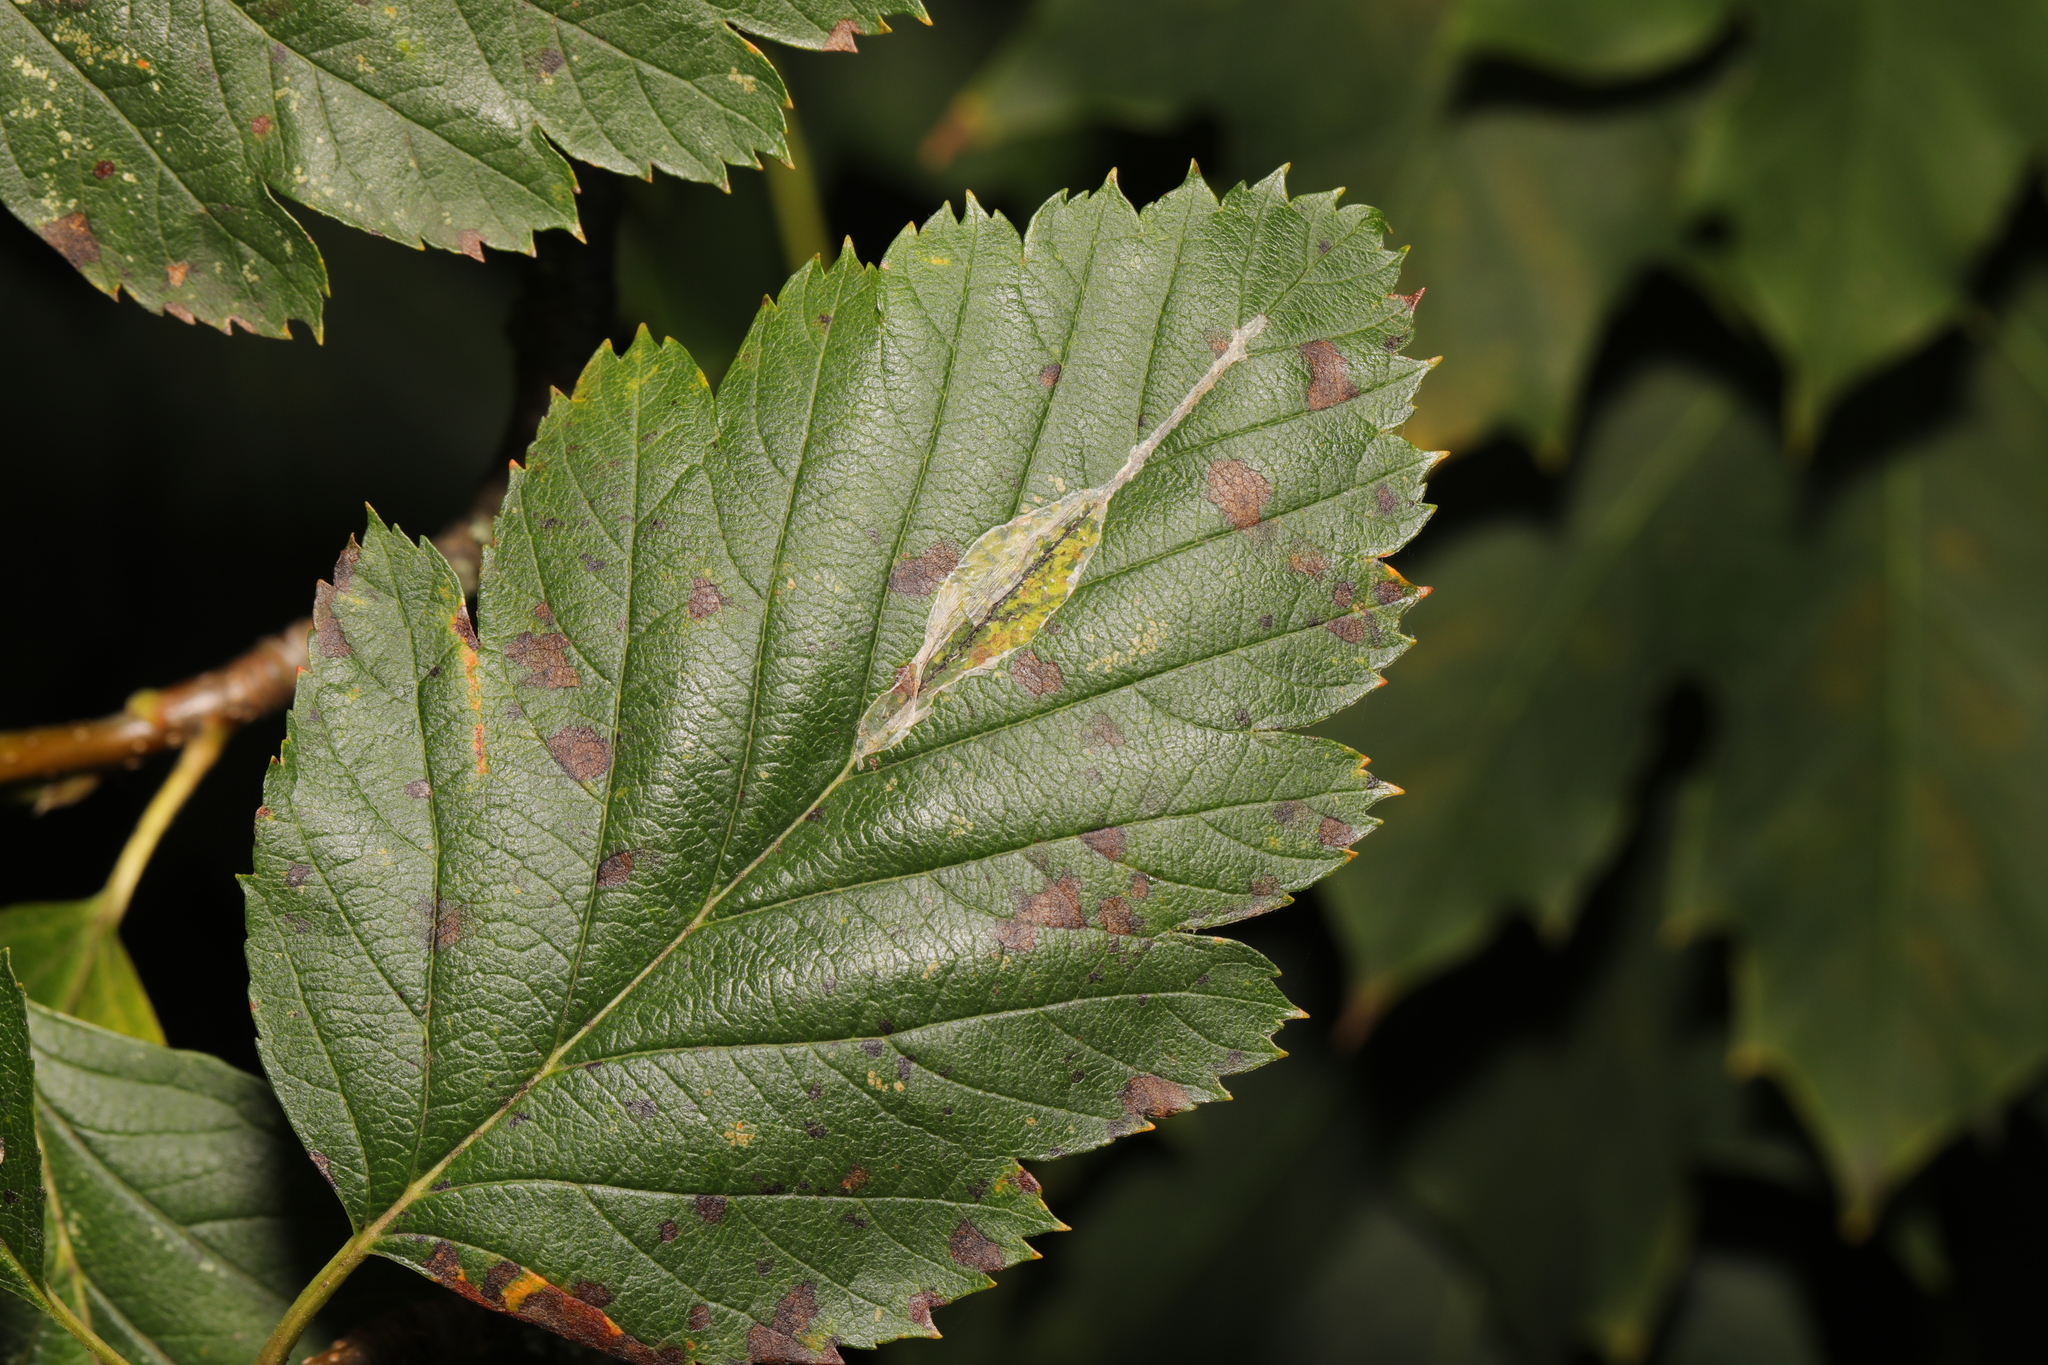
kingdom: Animalia
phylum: Arthropoda
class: Insecta
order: Lepidoptera
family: Gracillariidae
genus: Phyllonorycter
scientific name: Phyllonorycter corylifoliella
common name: Hawthorn midget
